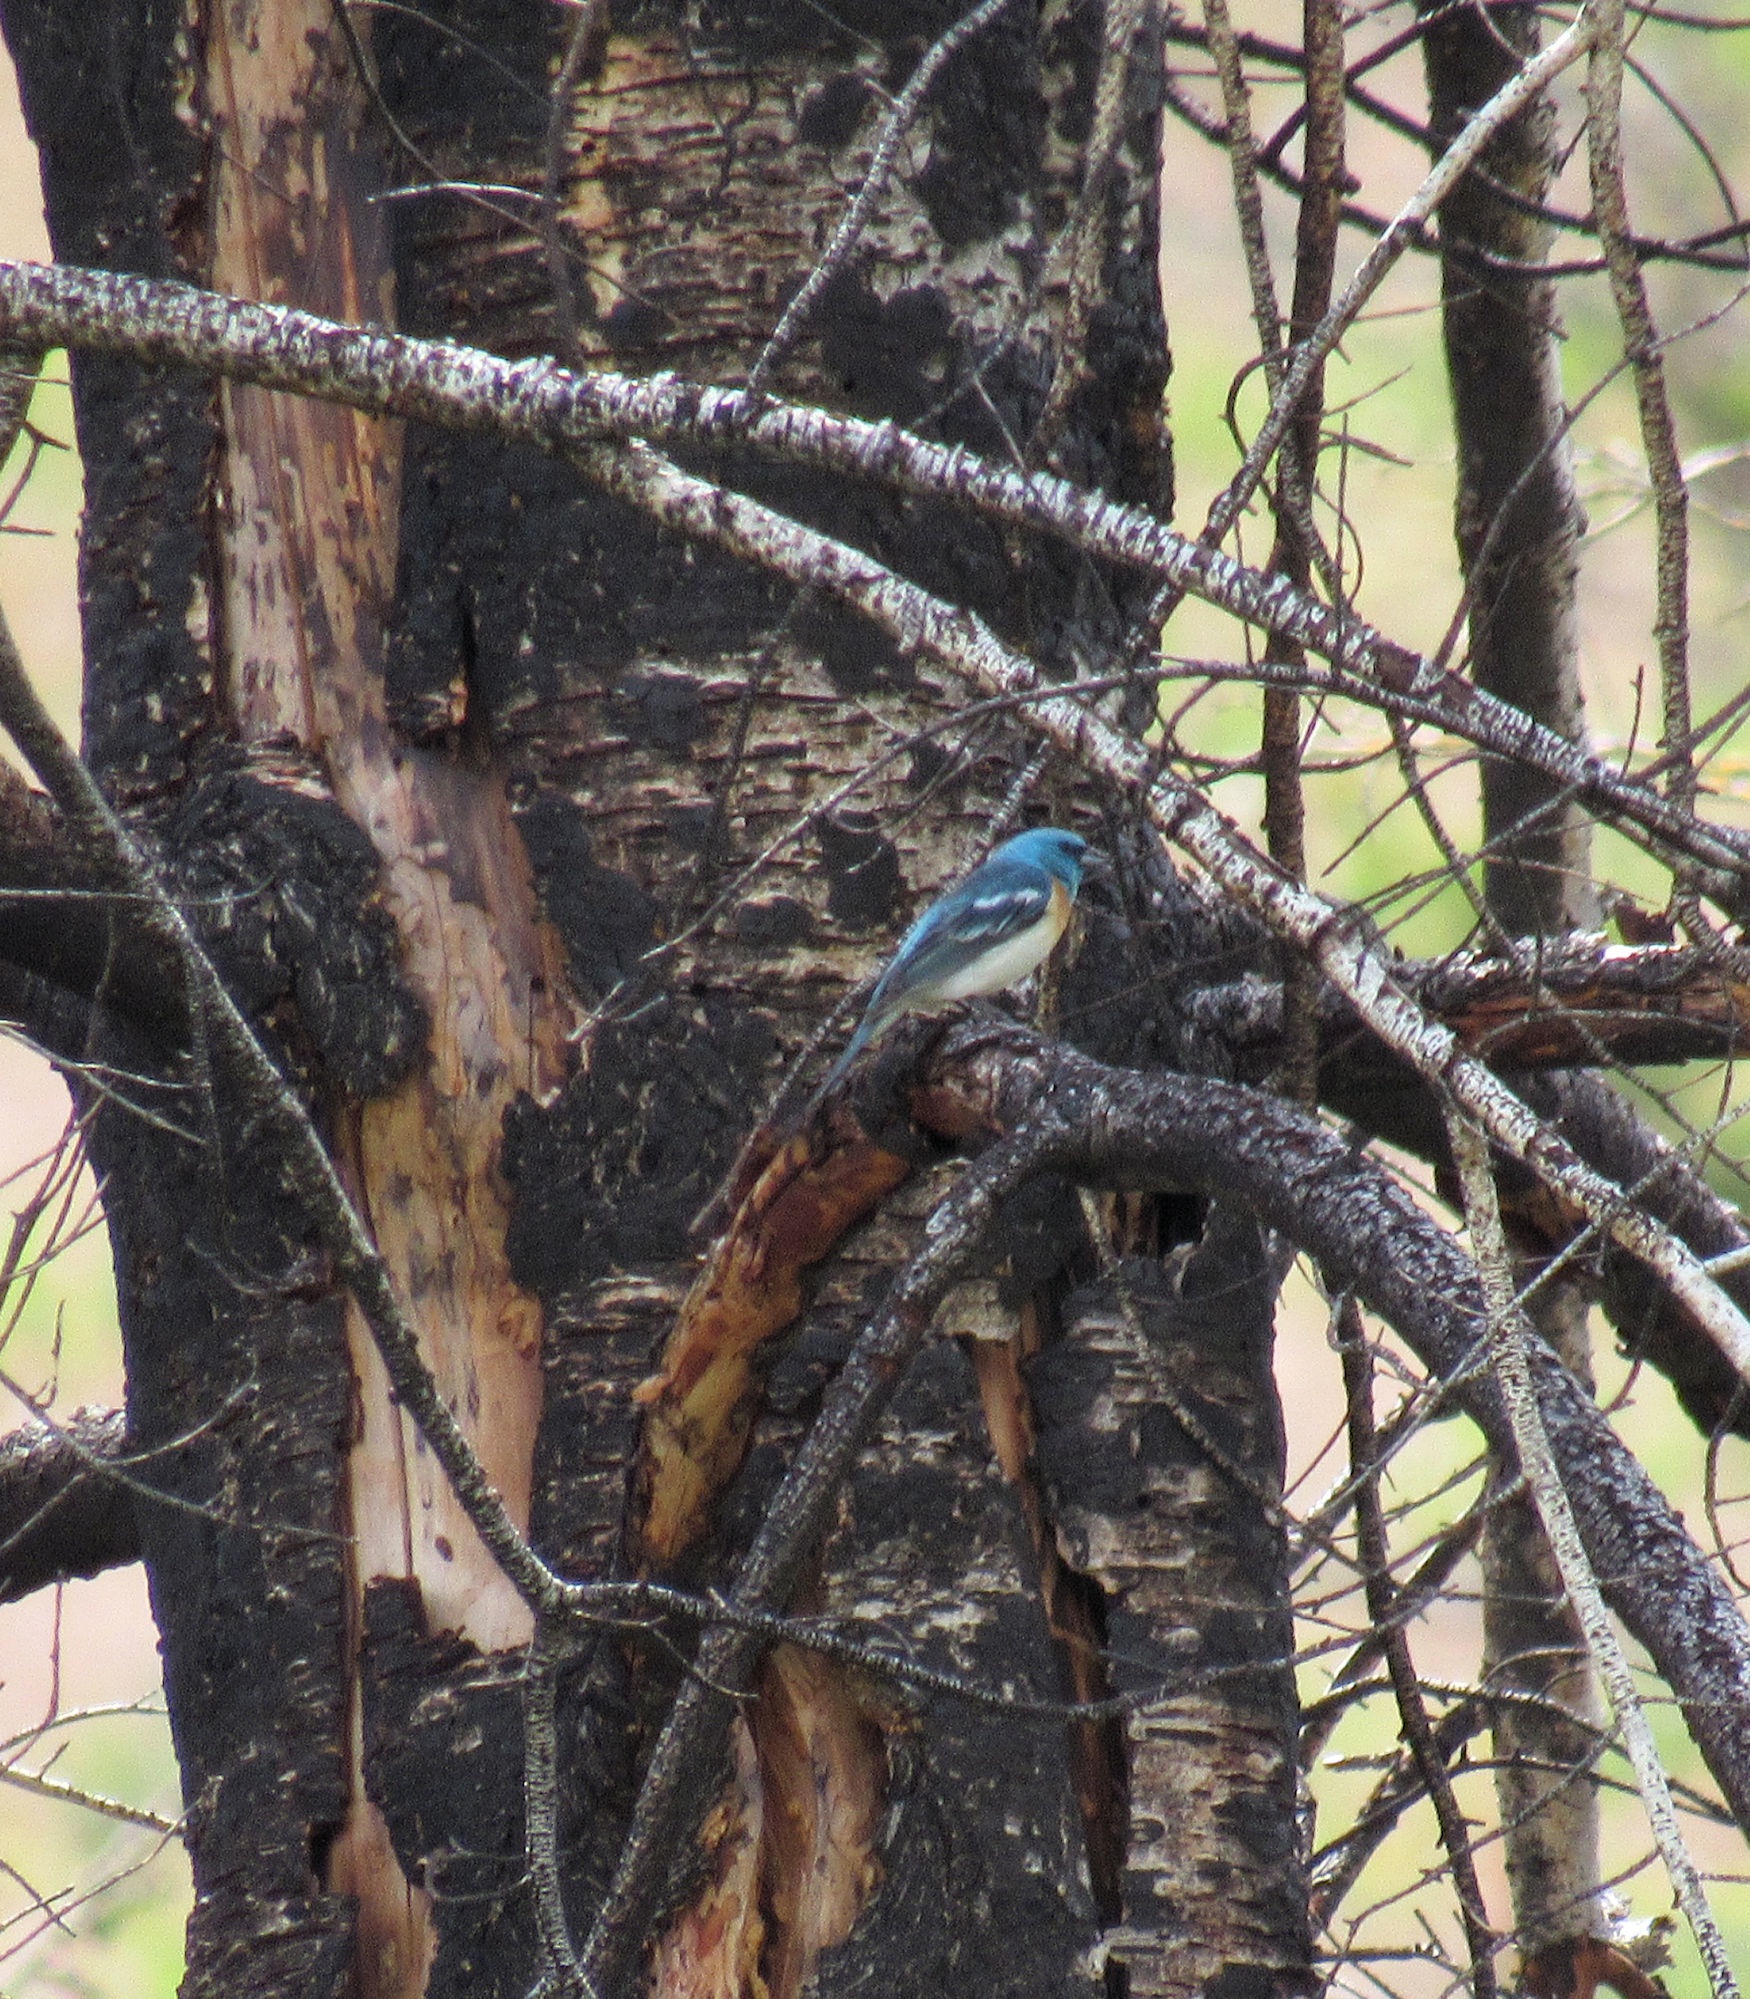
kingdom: Animalia
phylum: Chordata
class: Aves
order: Passeriformes
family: Cardinalidae
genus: Passerina
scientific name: Passerina amoena
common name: Lazuli bunting
